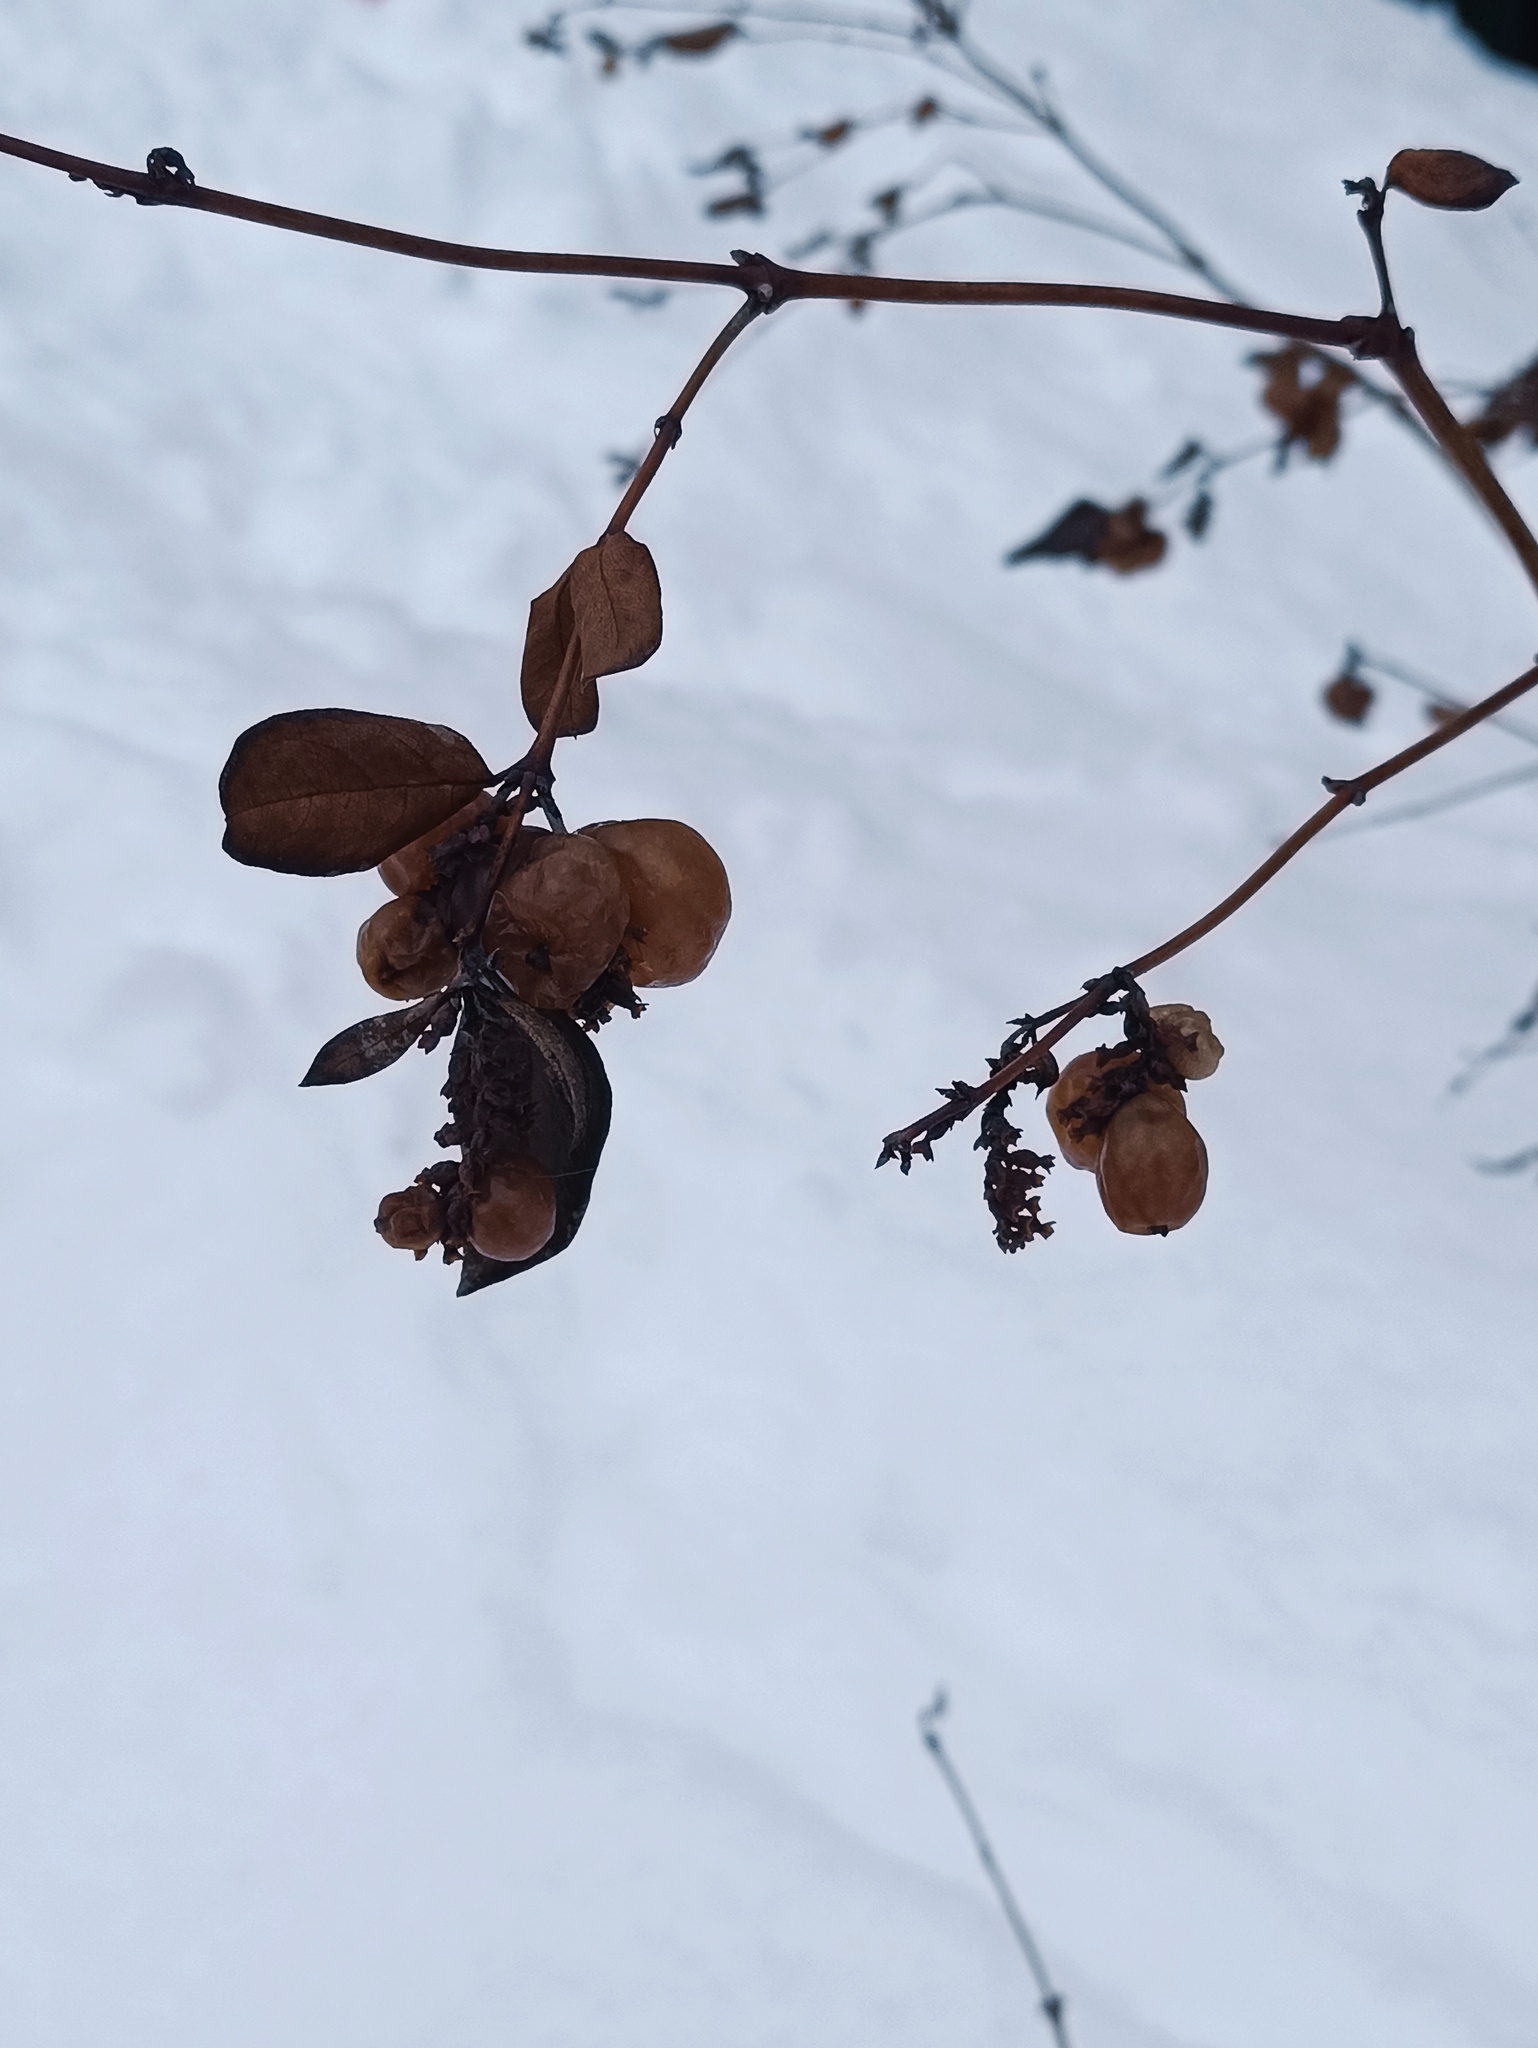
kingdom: Plantae
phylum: Tracheophyta
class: Magnoliopsida
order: Dipsacales
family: Caprifoliaceae
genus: Symphoricarpos
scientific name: Symphoricarpos albus
